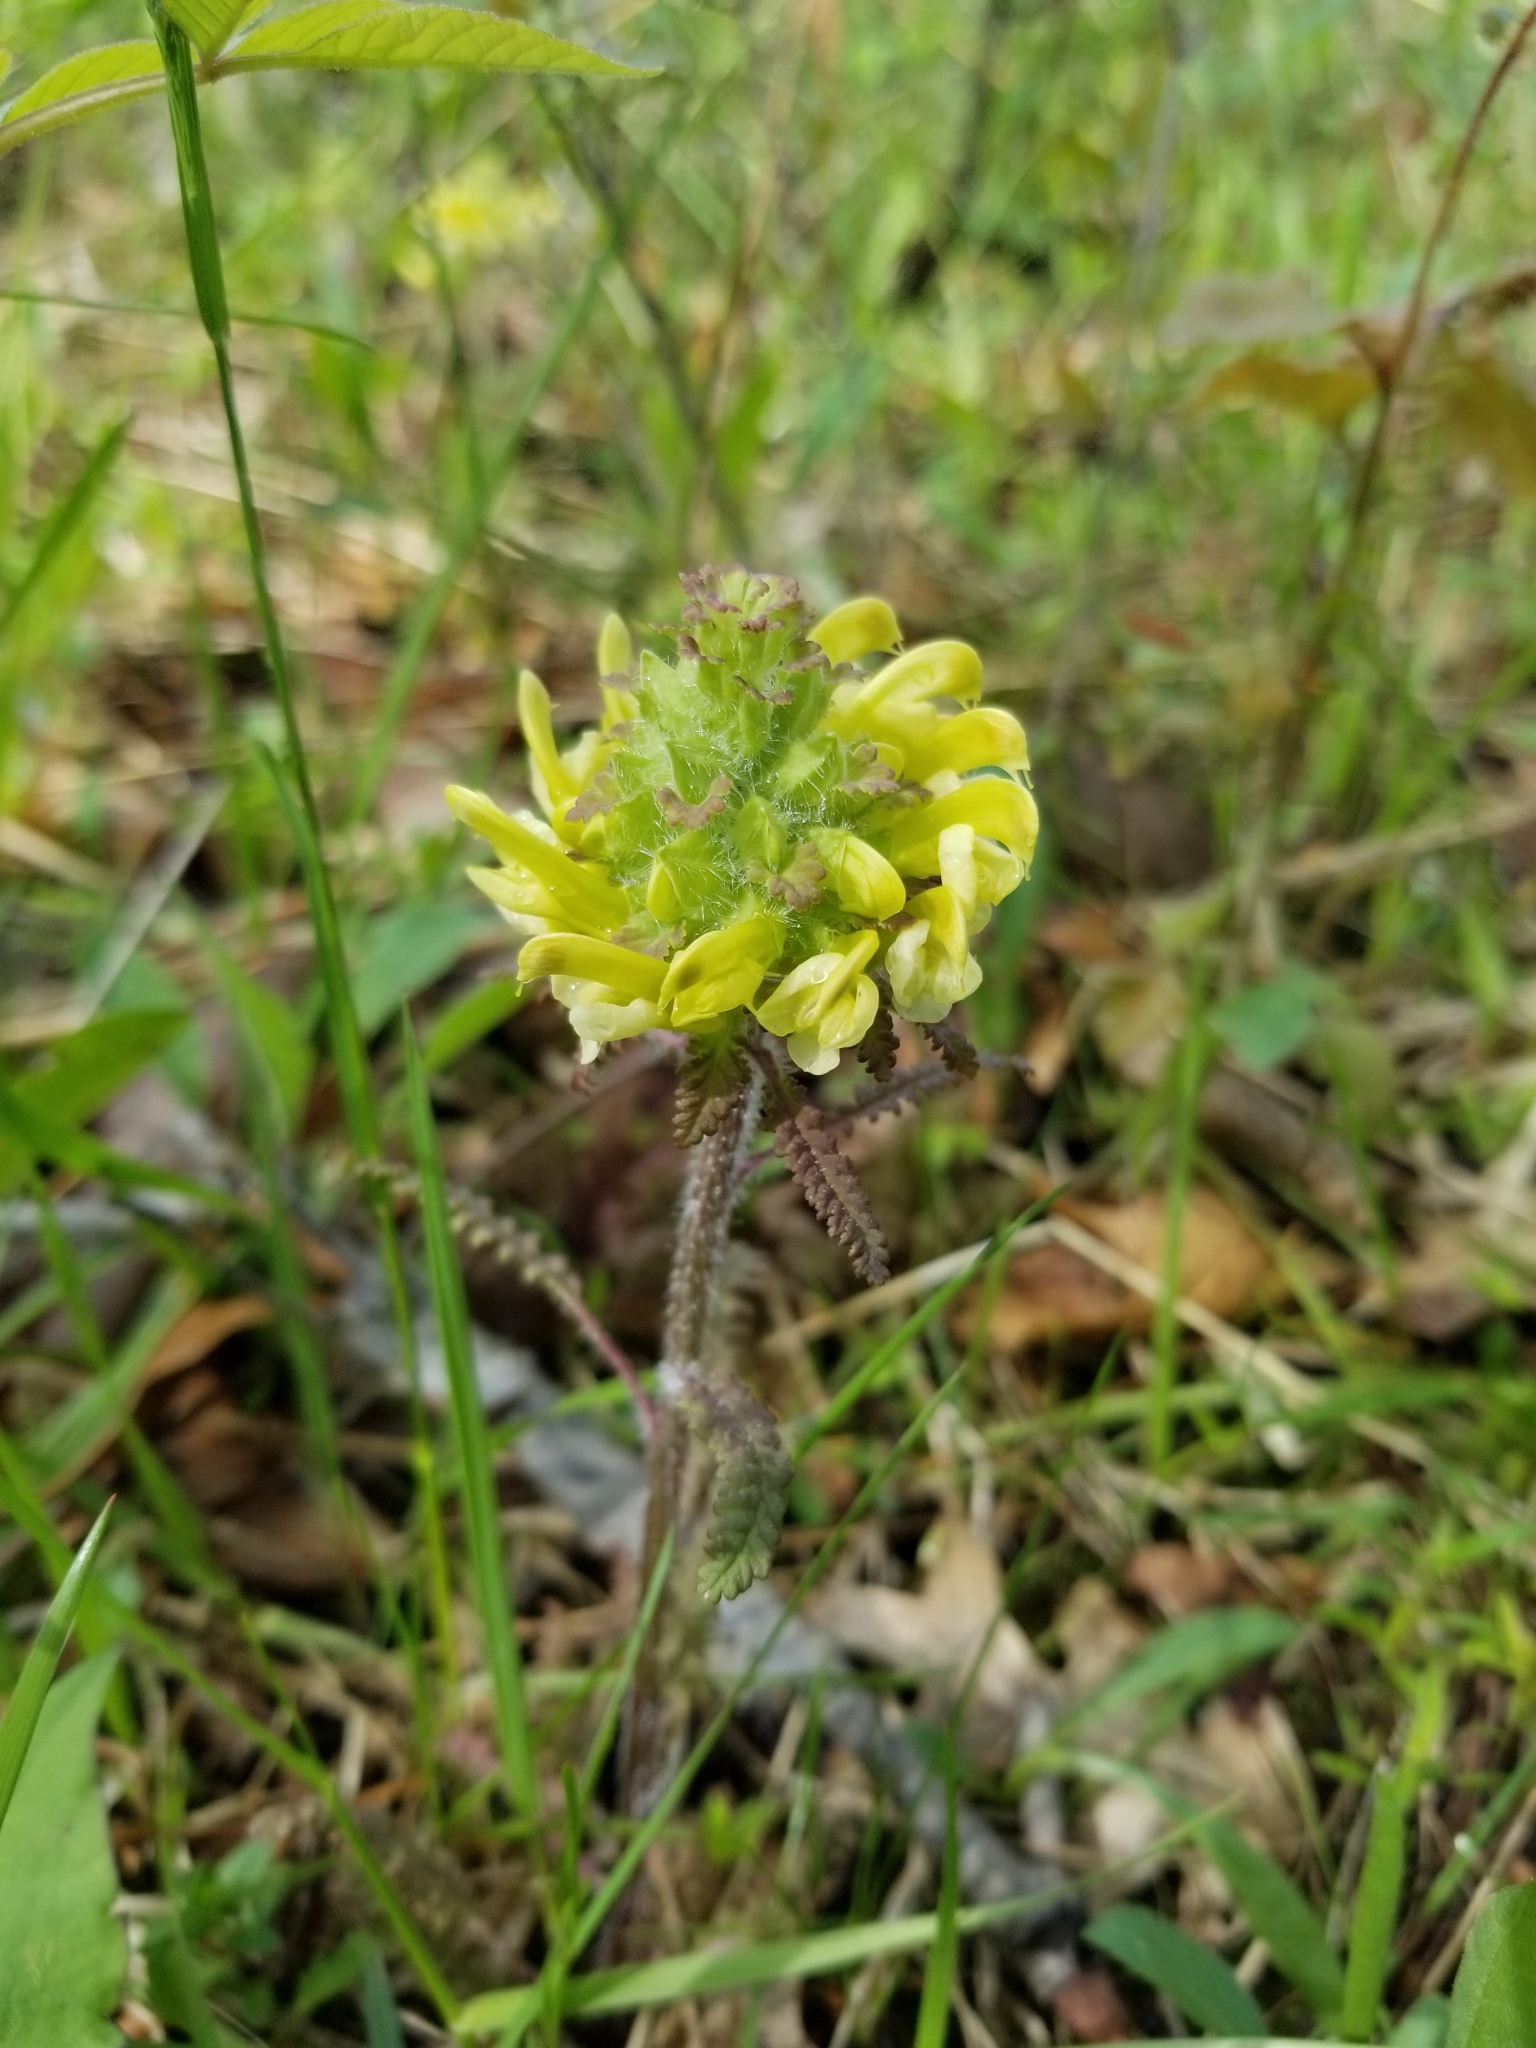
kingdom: Plantae
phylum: Tracheophyta
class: Magnoliopsida
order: Lamiales
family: Orobanchaceae
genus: Pedicularis
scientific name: Pedicularis canadensis
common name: Early lousewort
